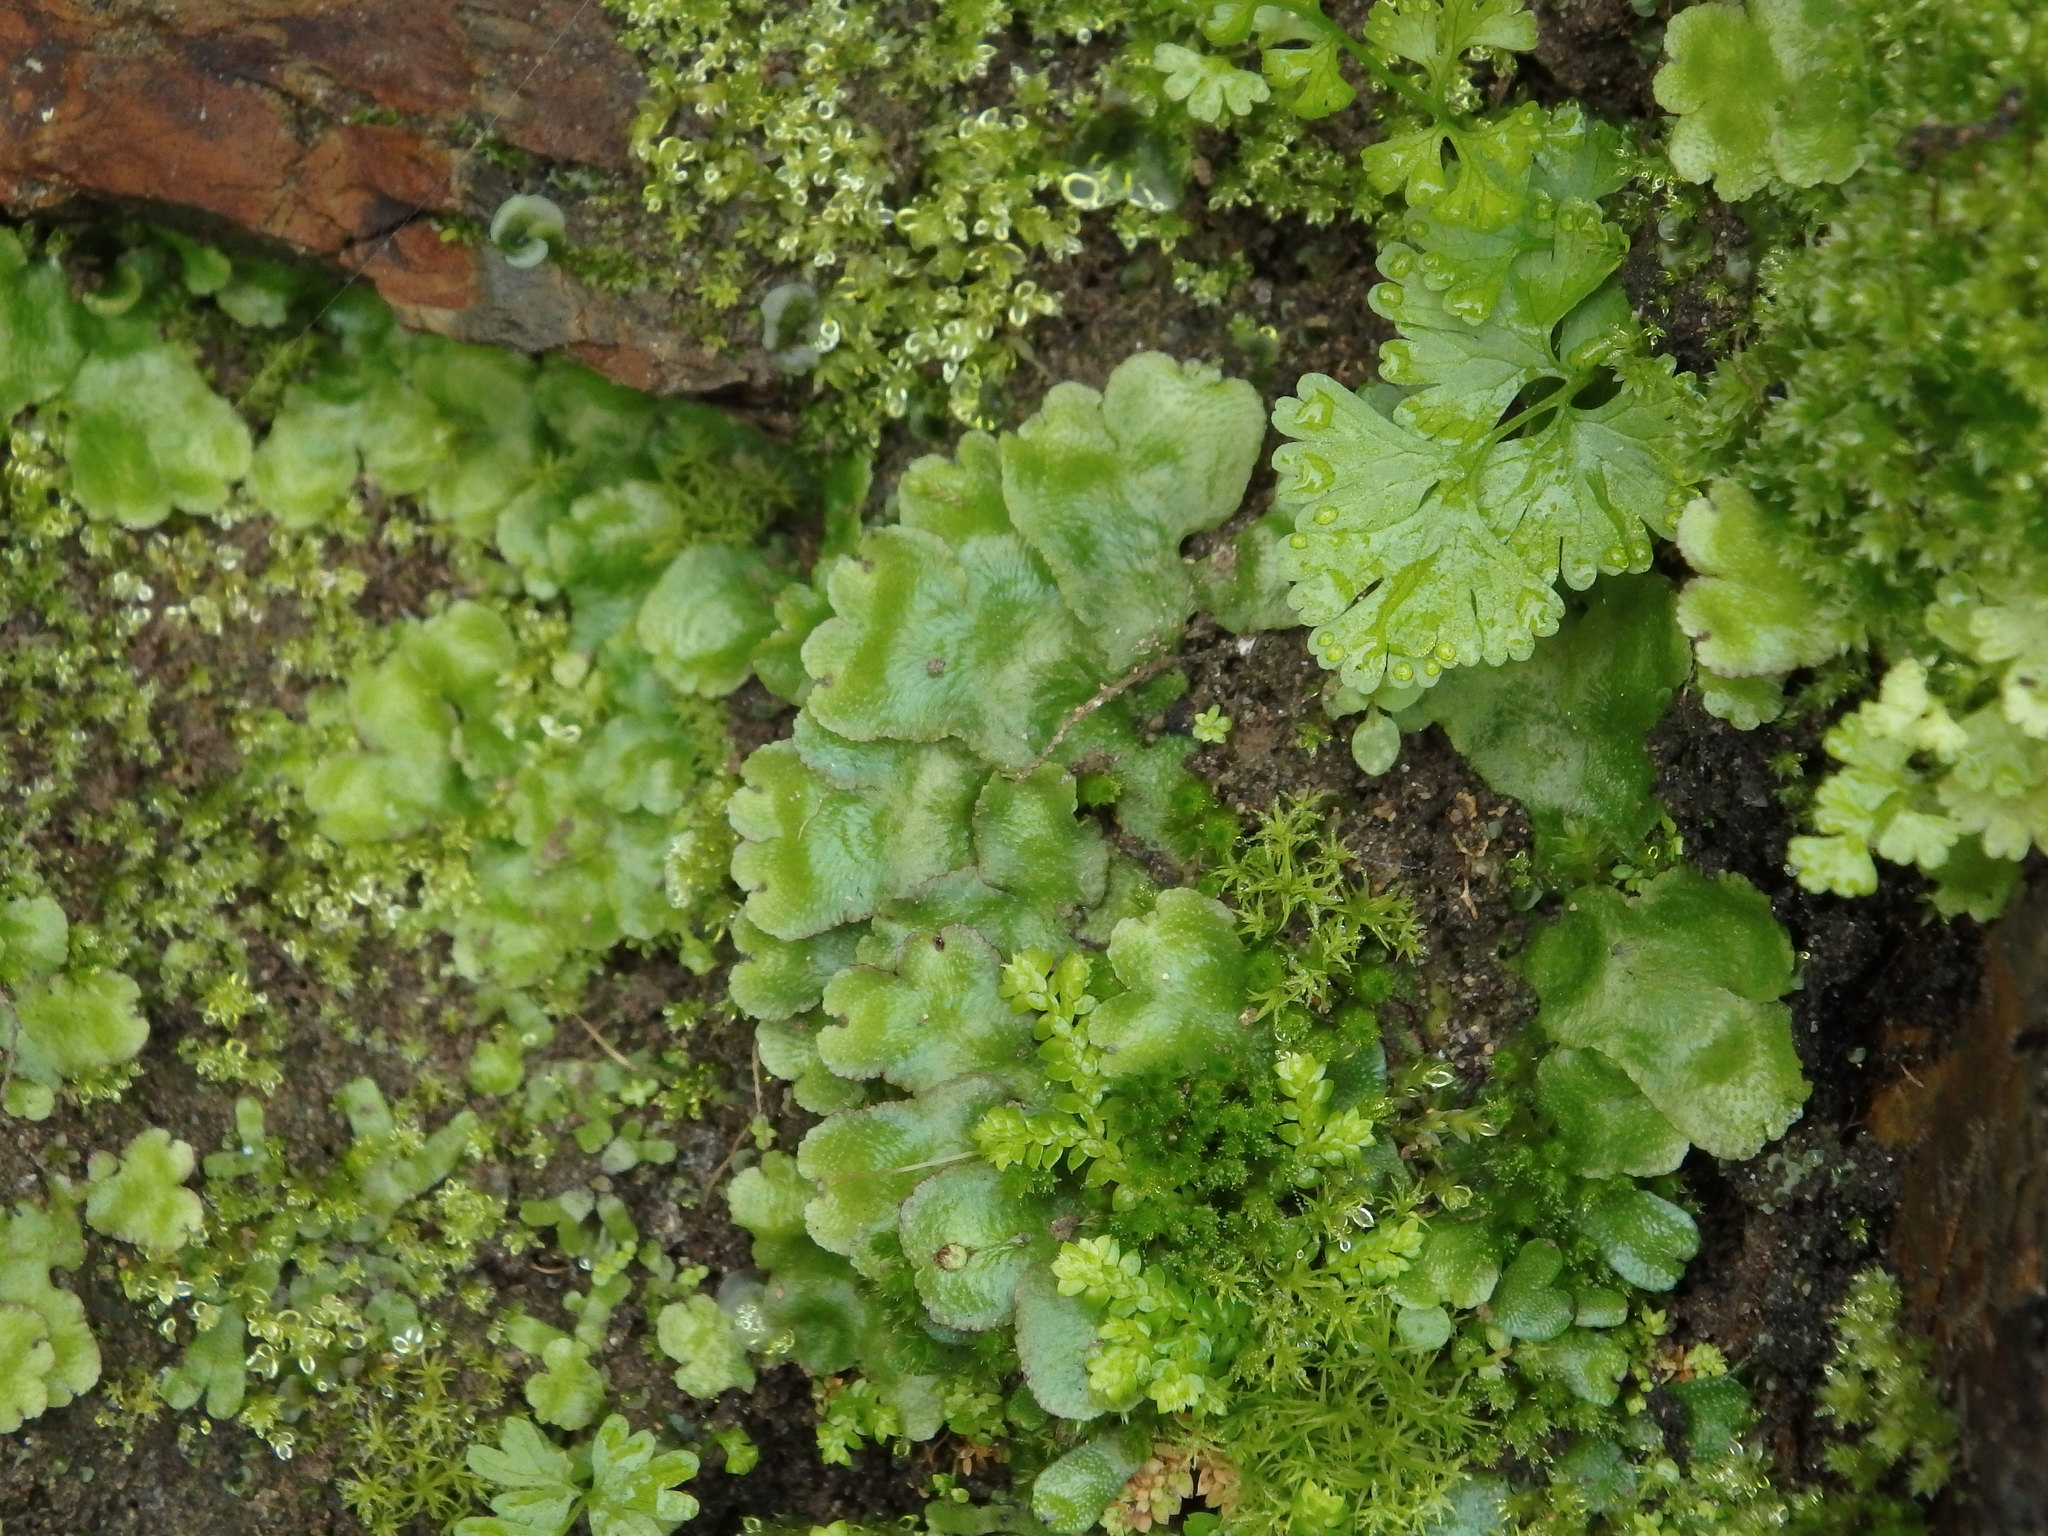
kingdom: Plantae
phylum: Marchantiophyta
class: Marchantiopsida
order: Marchantiales
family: Aytoniaceae
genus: Reboulia
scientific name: Reboulia hemisphaerica
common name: Purple-margined liverwort
